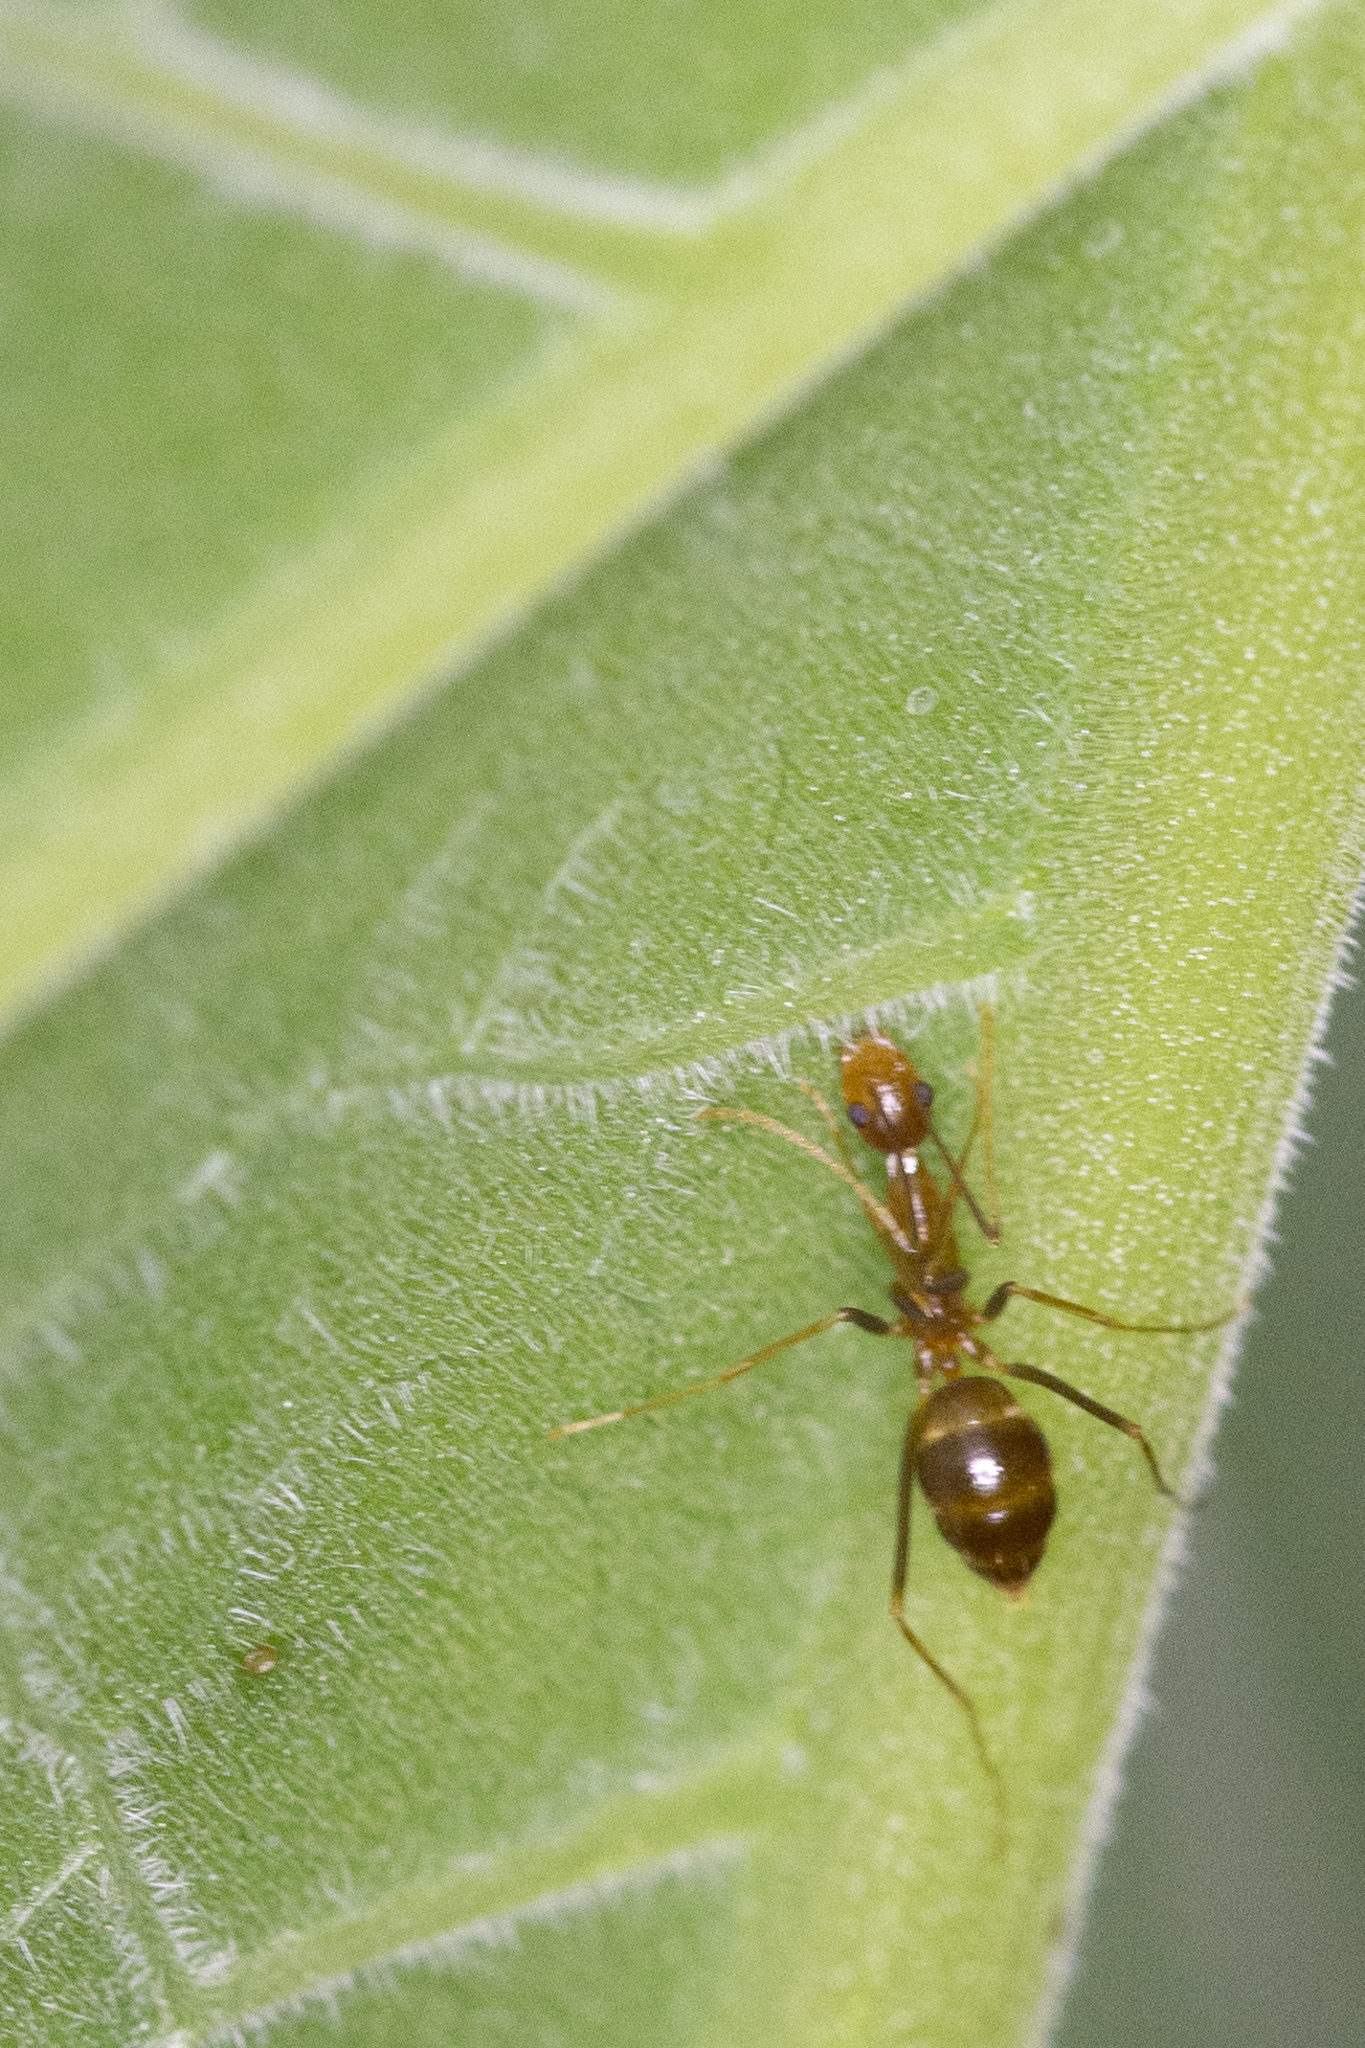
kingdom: Animalia
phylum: Arthropoda
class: Insecta
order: Hymenoptera
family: Formicidae
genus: Anoplolepis
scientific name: Anoplolepis gracilipes
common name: Ant
